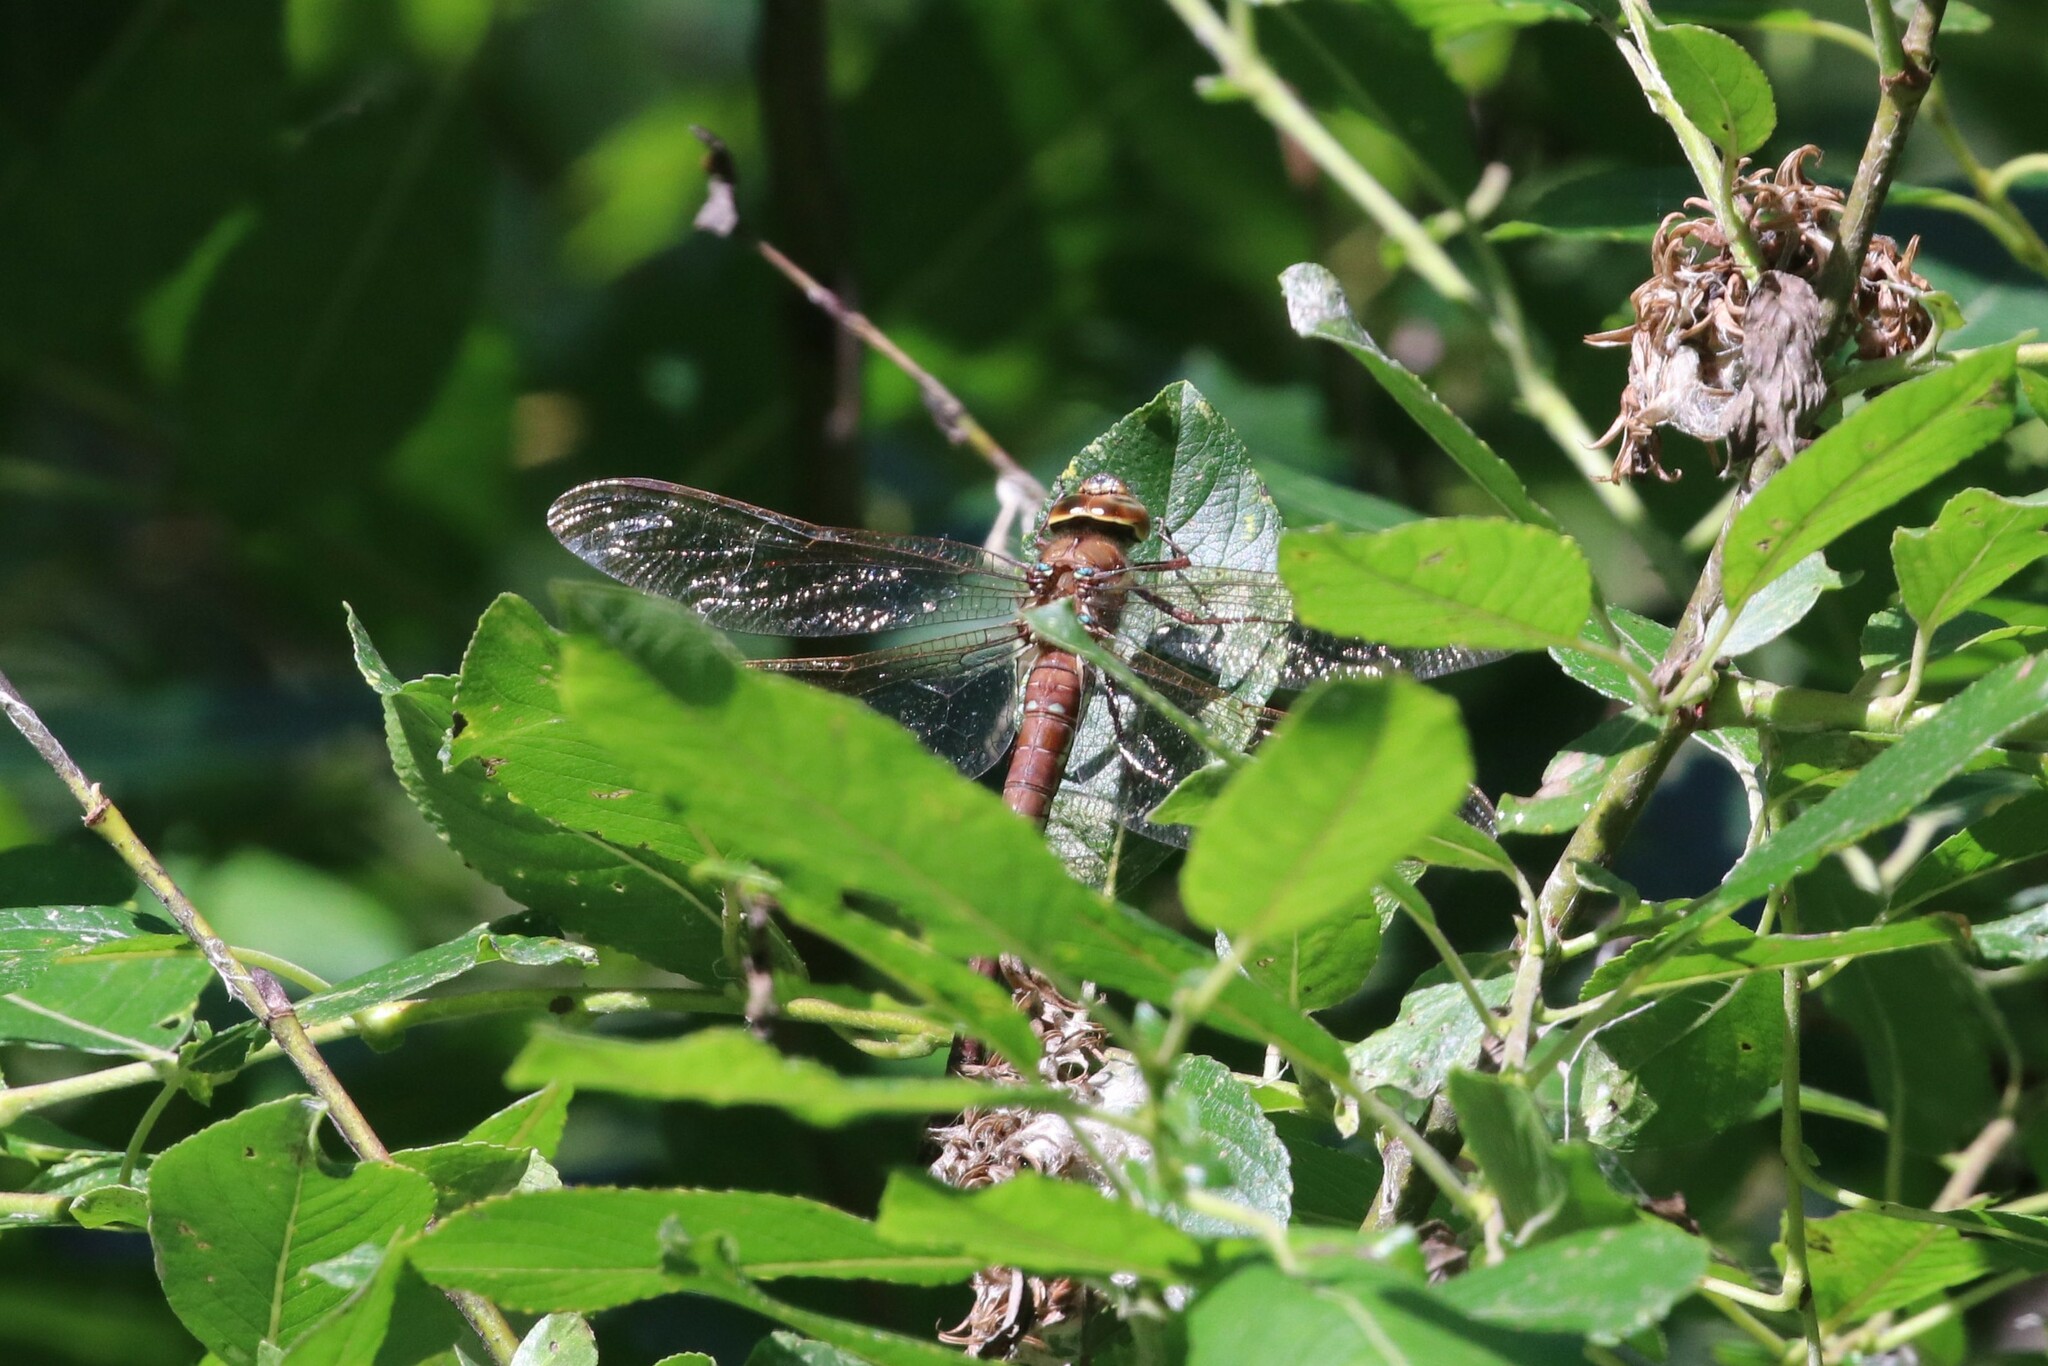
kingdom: Animalia
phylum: Arthropoda
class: Insecta
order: Odonata
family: Aeshnidae
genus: Aeshna
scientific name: Aeshna grandis
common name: Brown hawker
